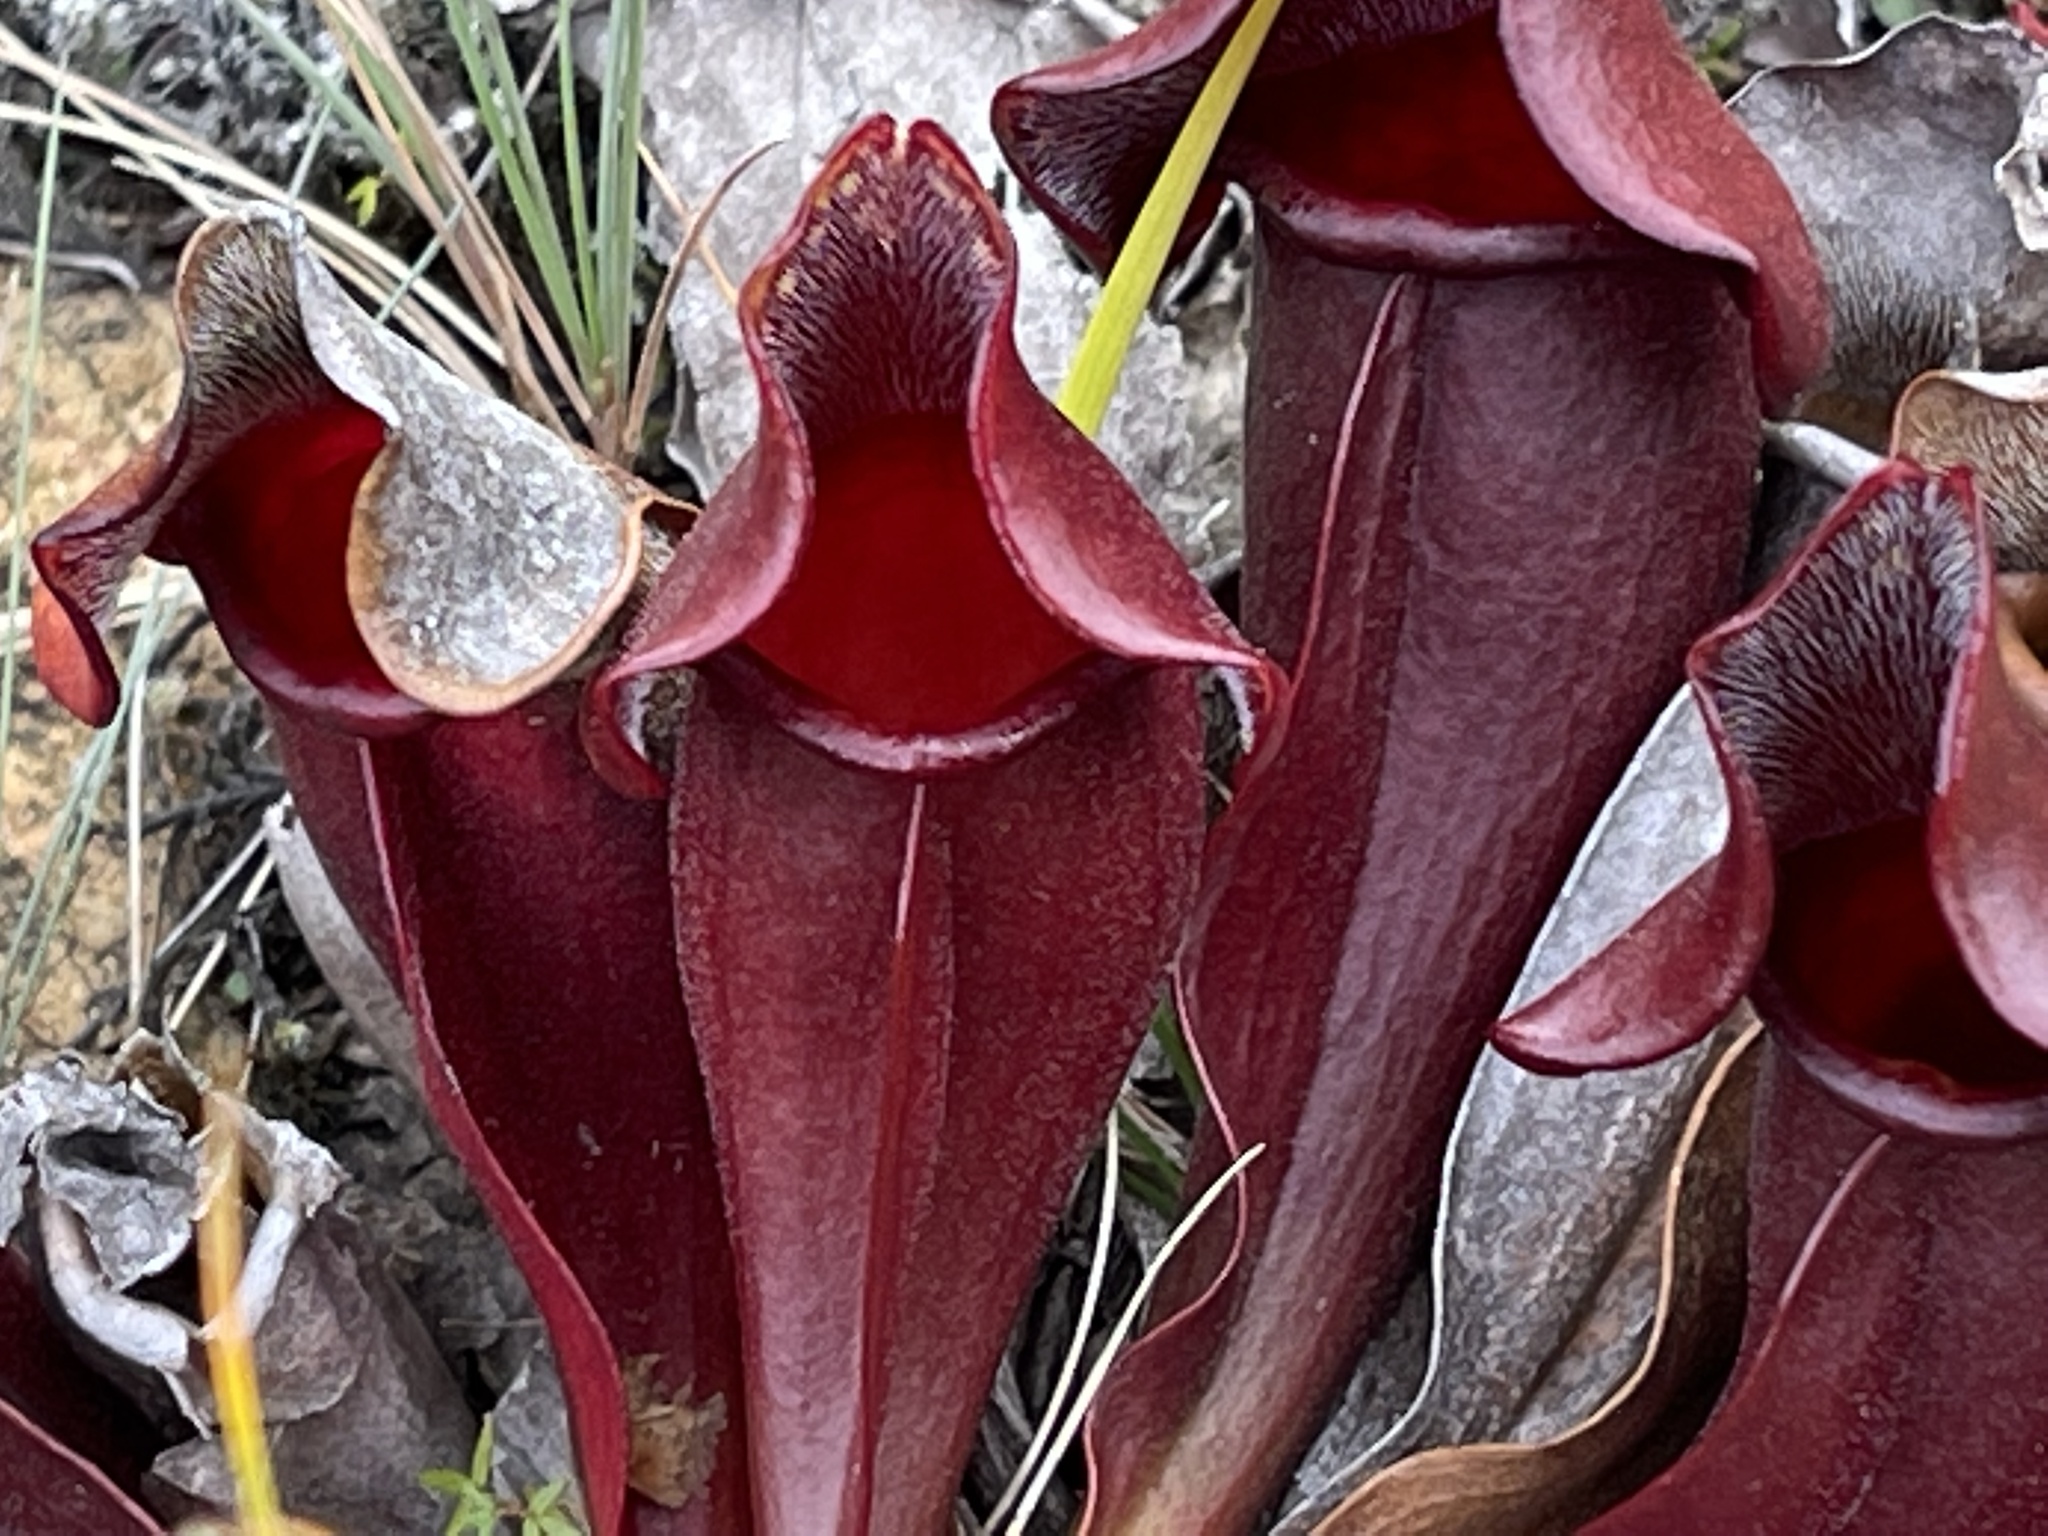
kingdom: Plantae
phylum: Tracheophyta
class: Magnoliopsida
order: Ericales
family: Sarraceniaceae
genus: Sarracenia
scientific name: Sarracenia purpurea
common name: Pitcherplant
